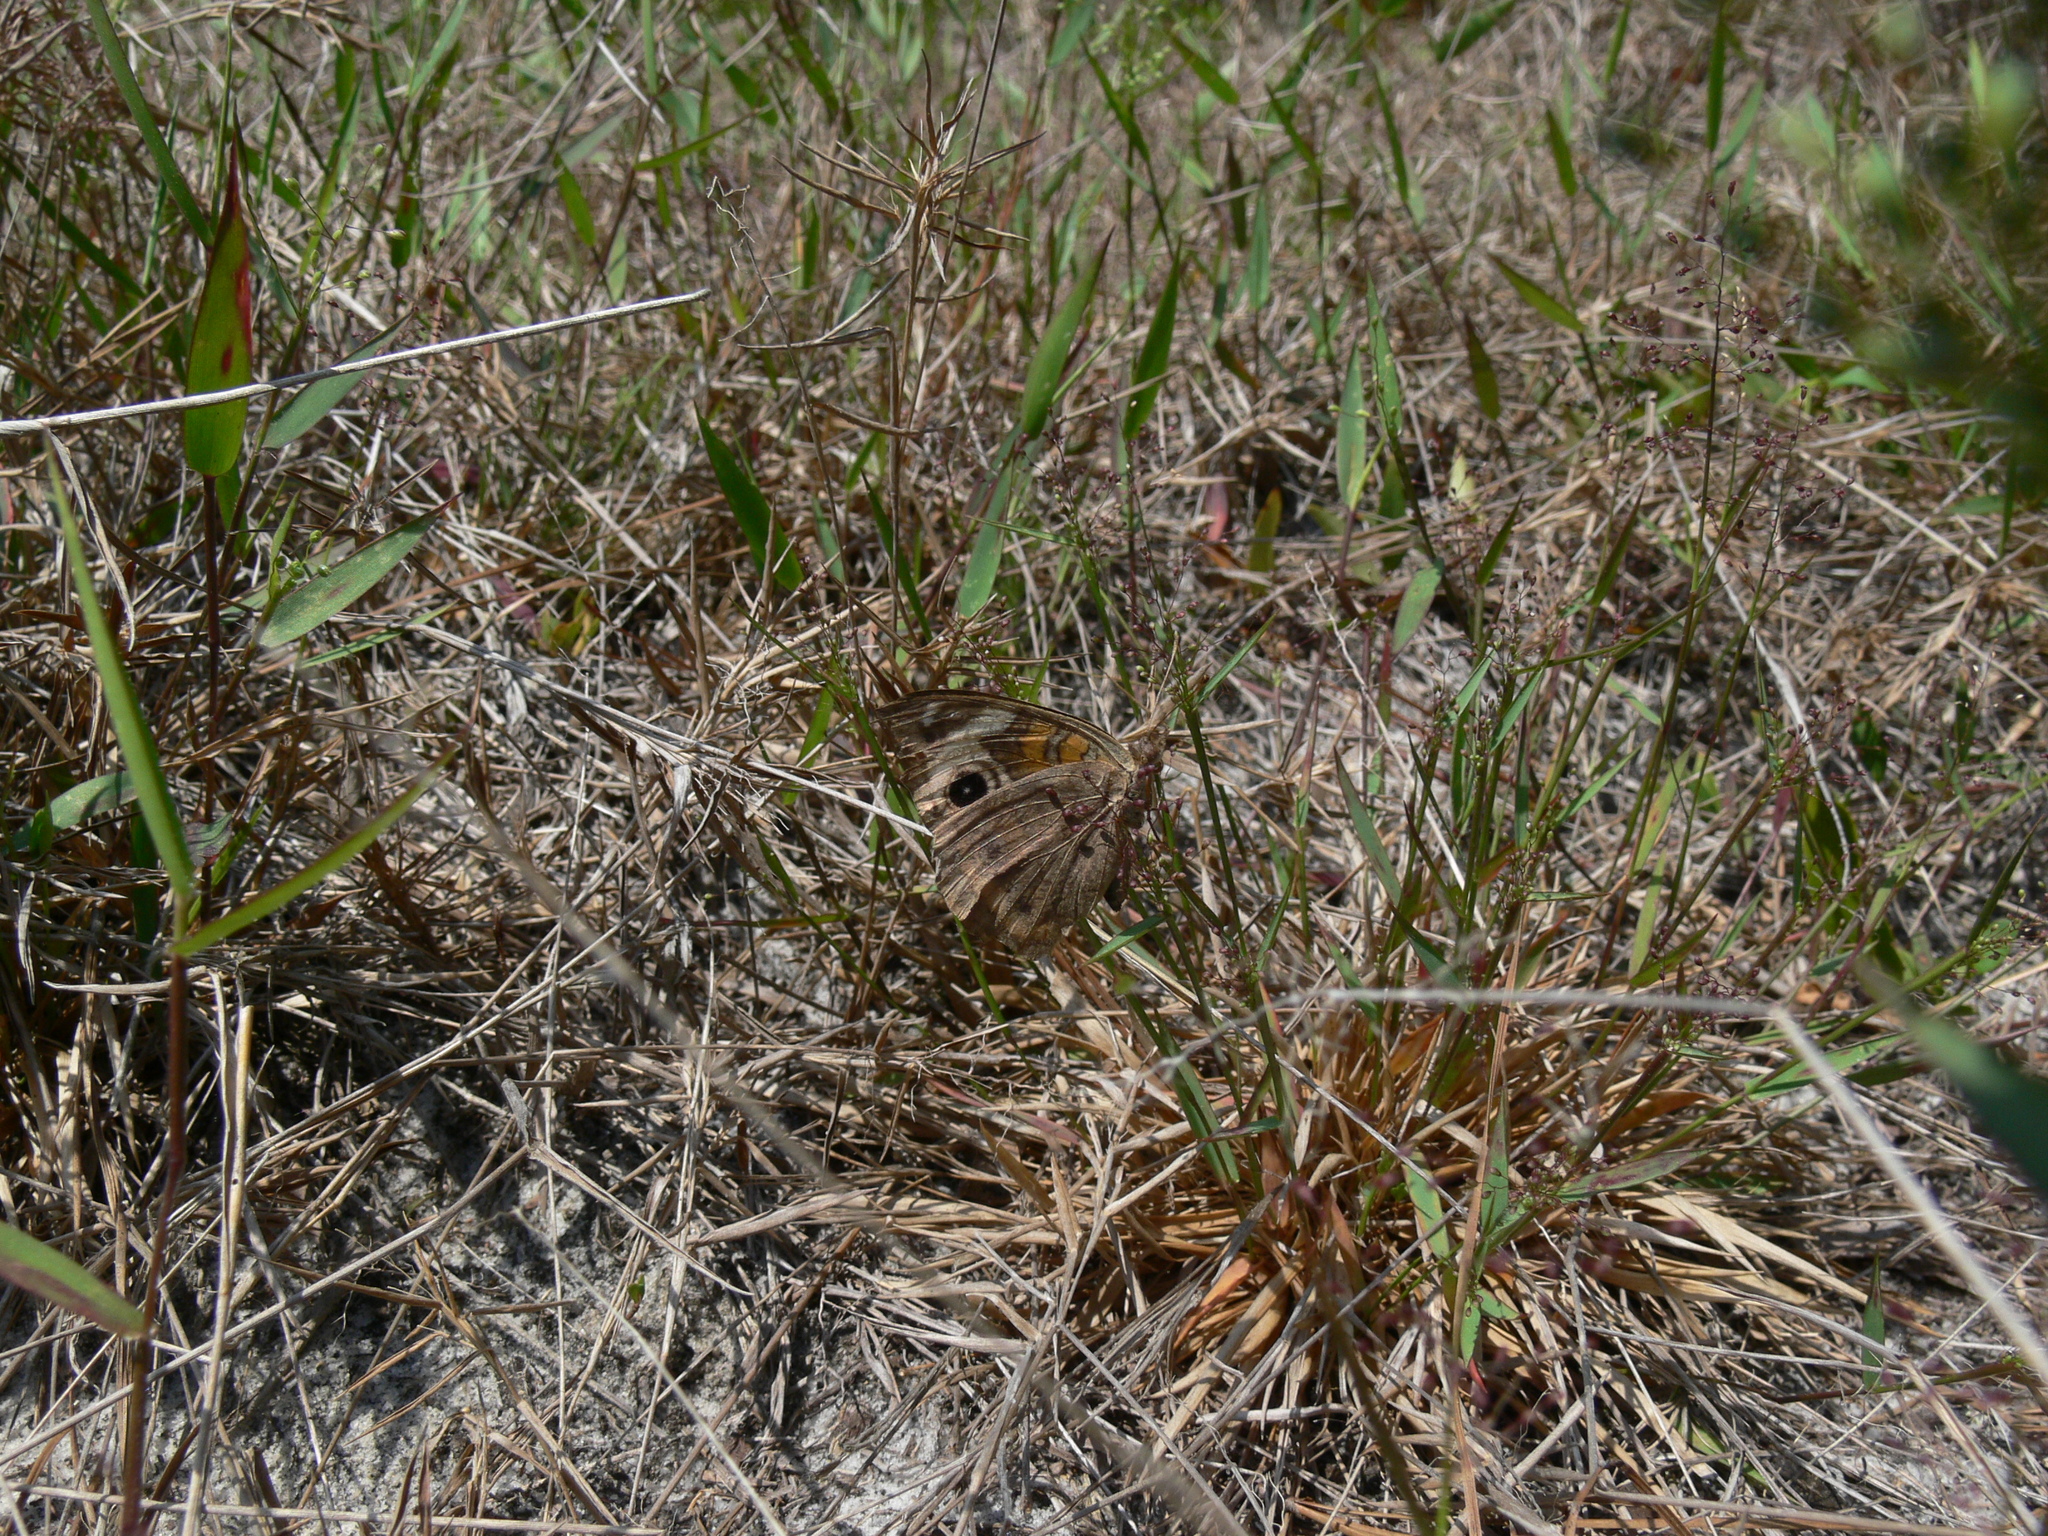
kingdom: Animalia
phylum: Arthropoda
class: Insecta
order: Lepidoptera
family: Nymphalidae
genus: Junonia
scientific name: Junonia coenia
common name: Common buckeye
